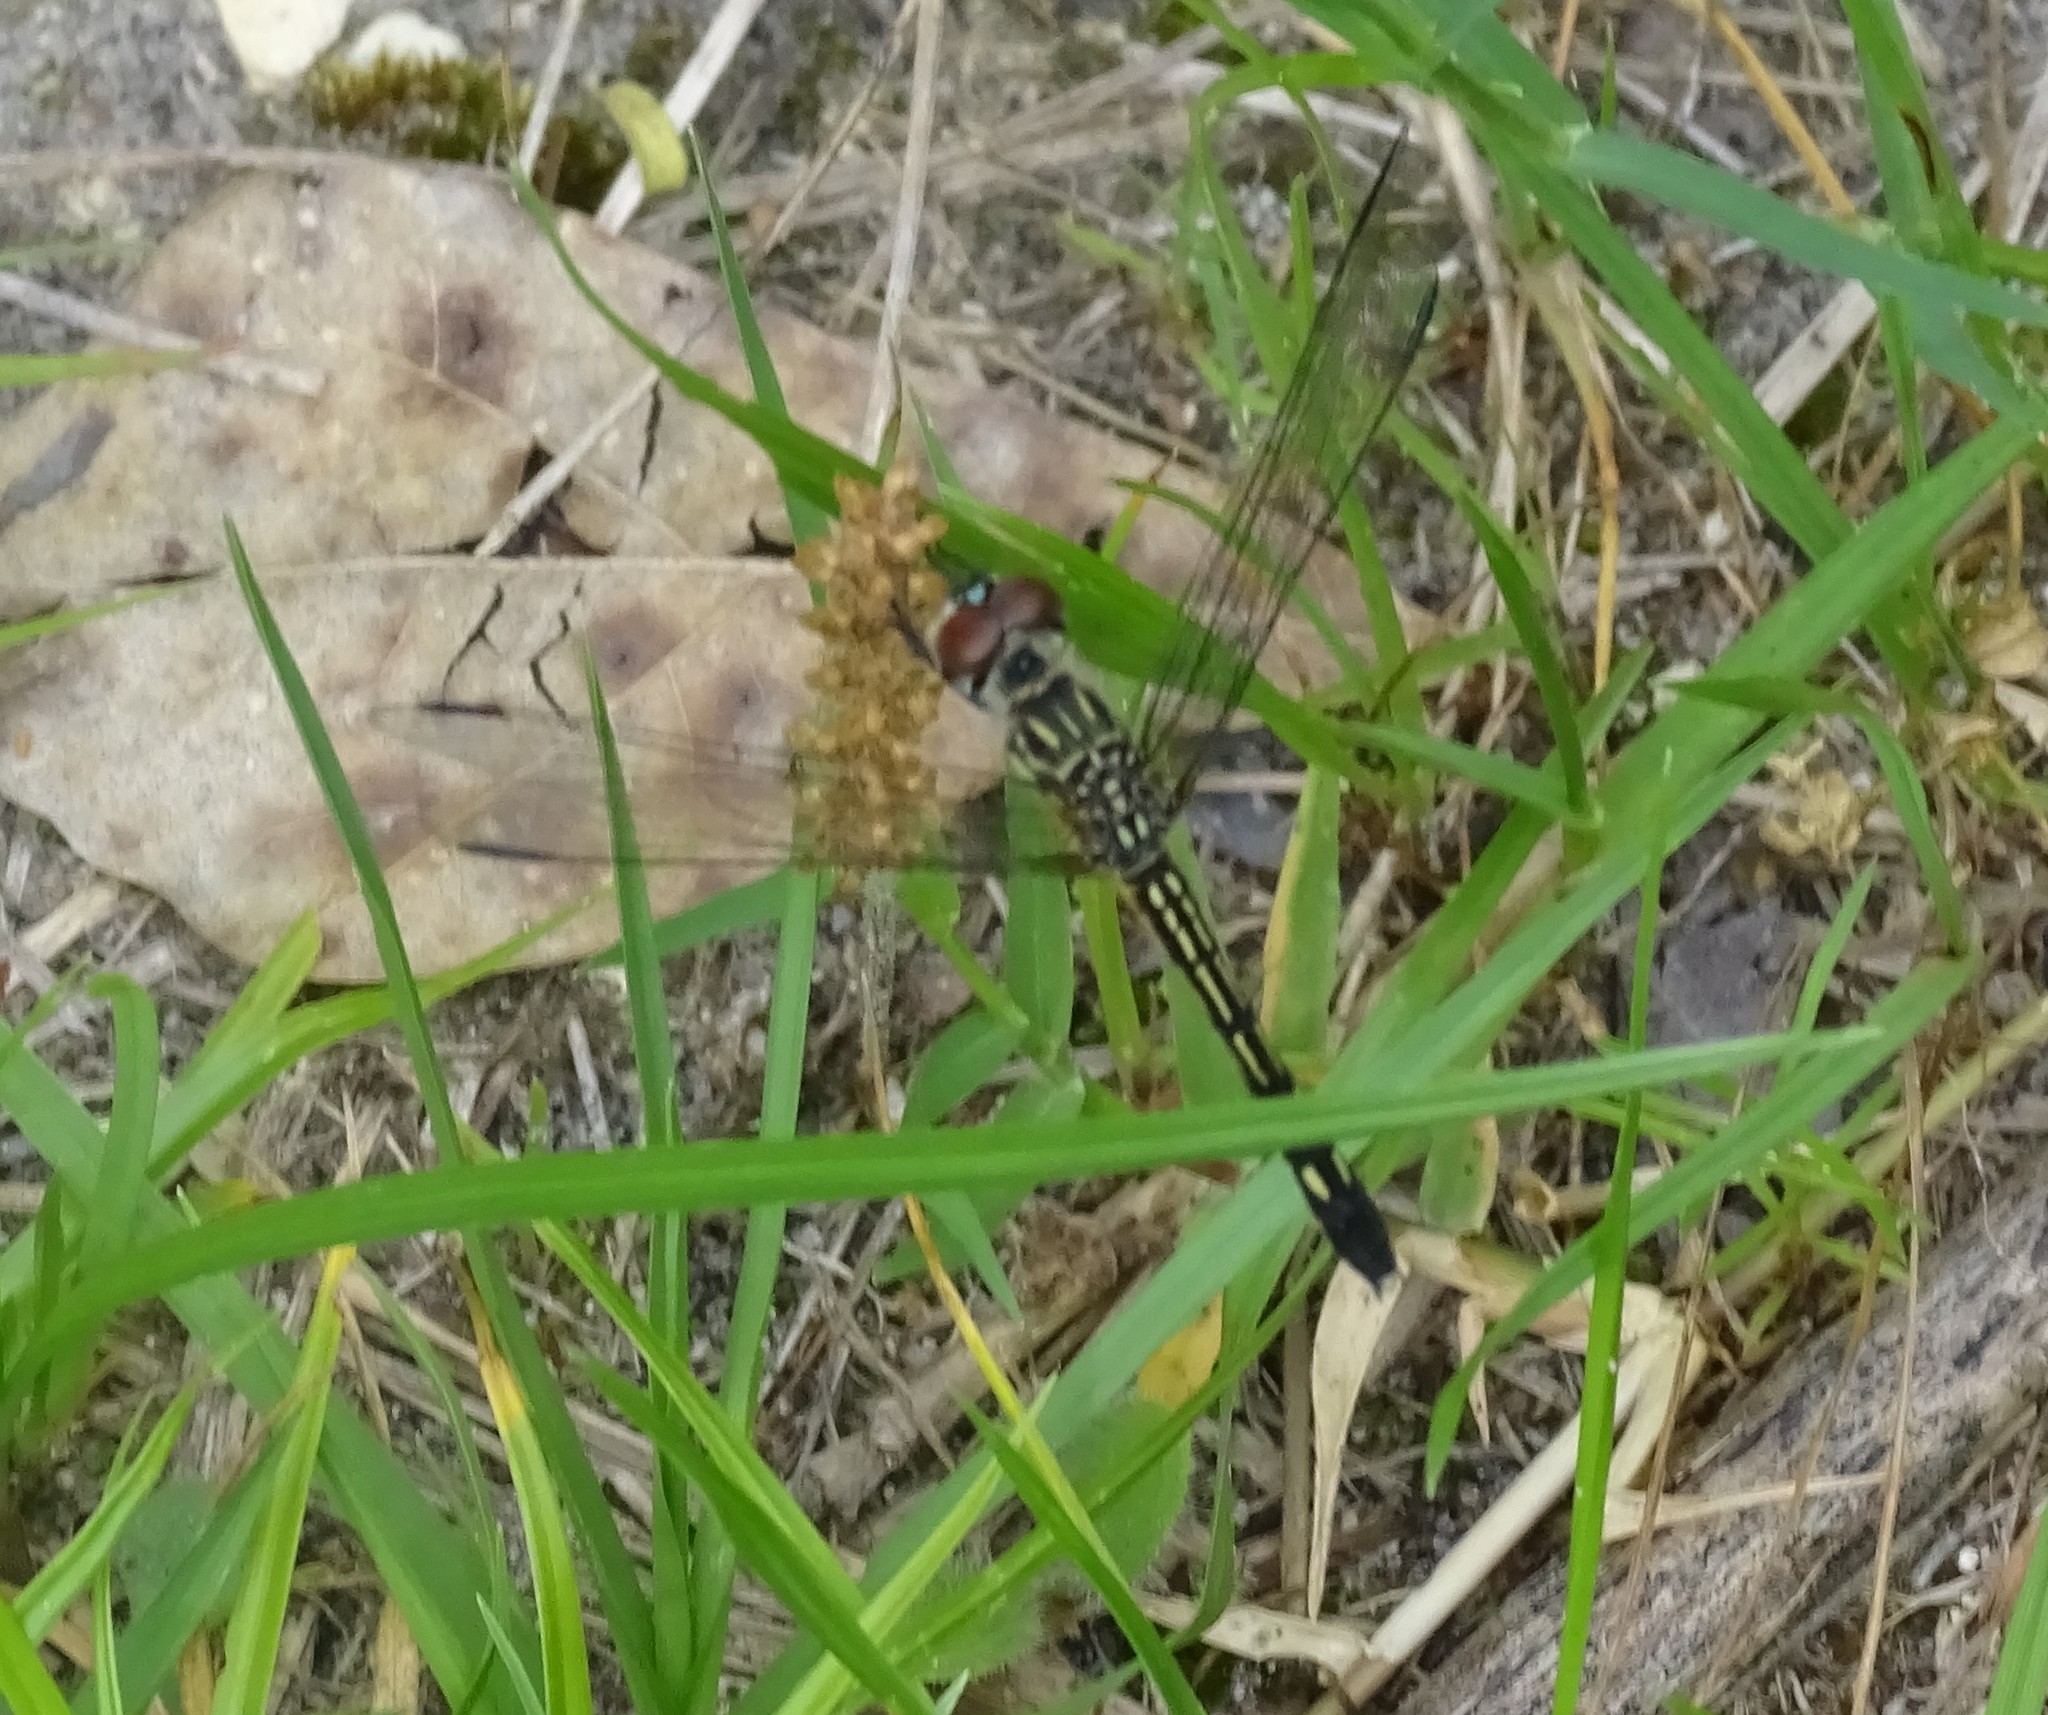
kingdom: Animalia
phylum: Arthropoda
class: Insecta
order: Odonata
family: Libellulidae
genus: Pachydiplax
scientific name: Pachydiplax longipennis
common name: Blue dasher
